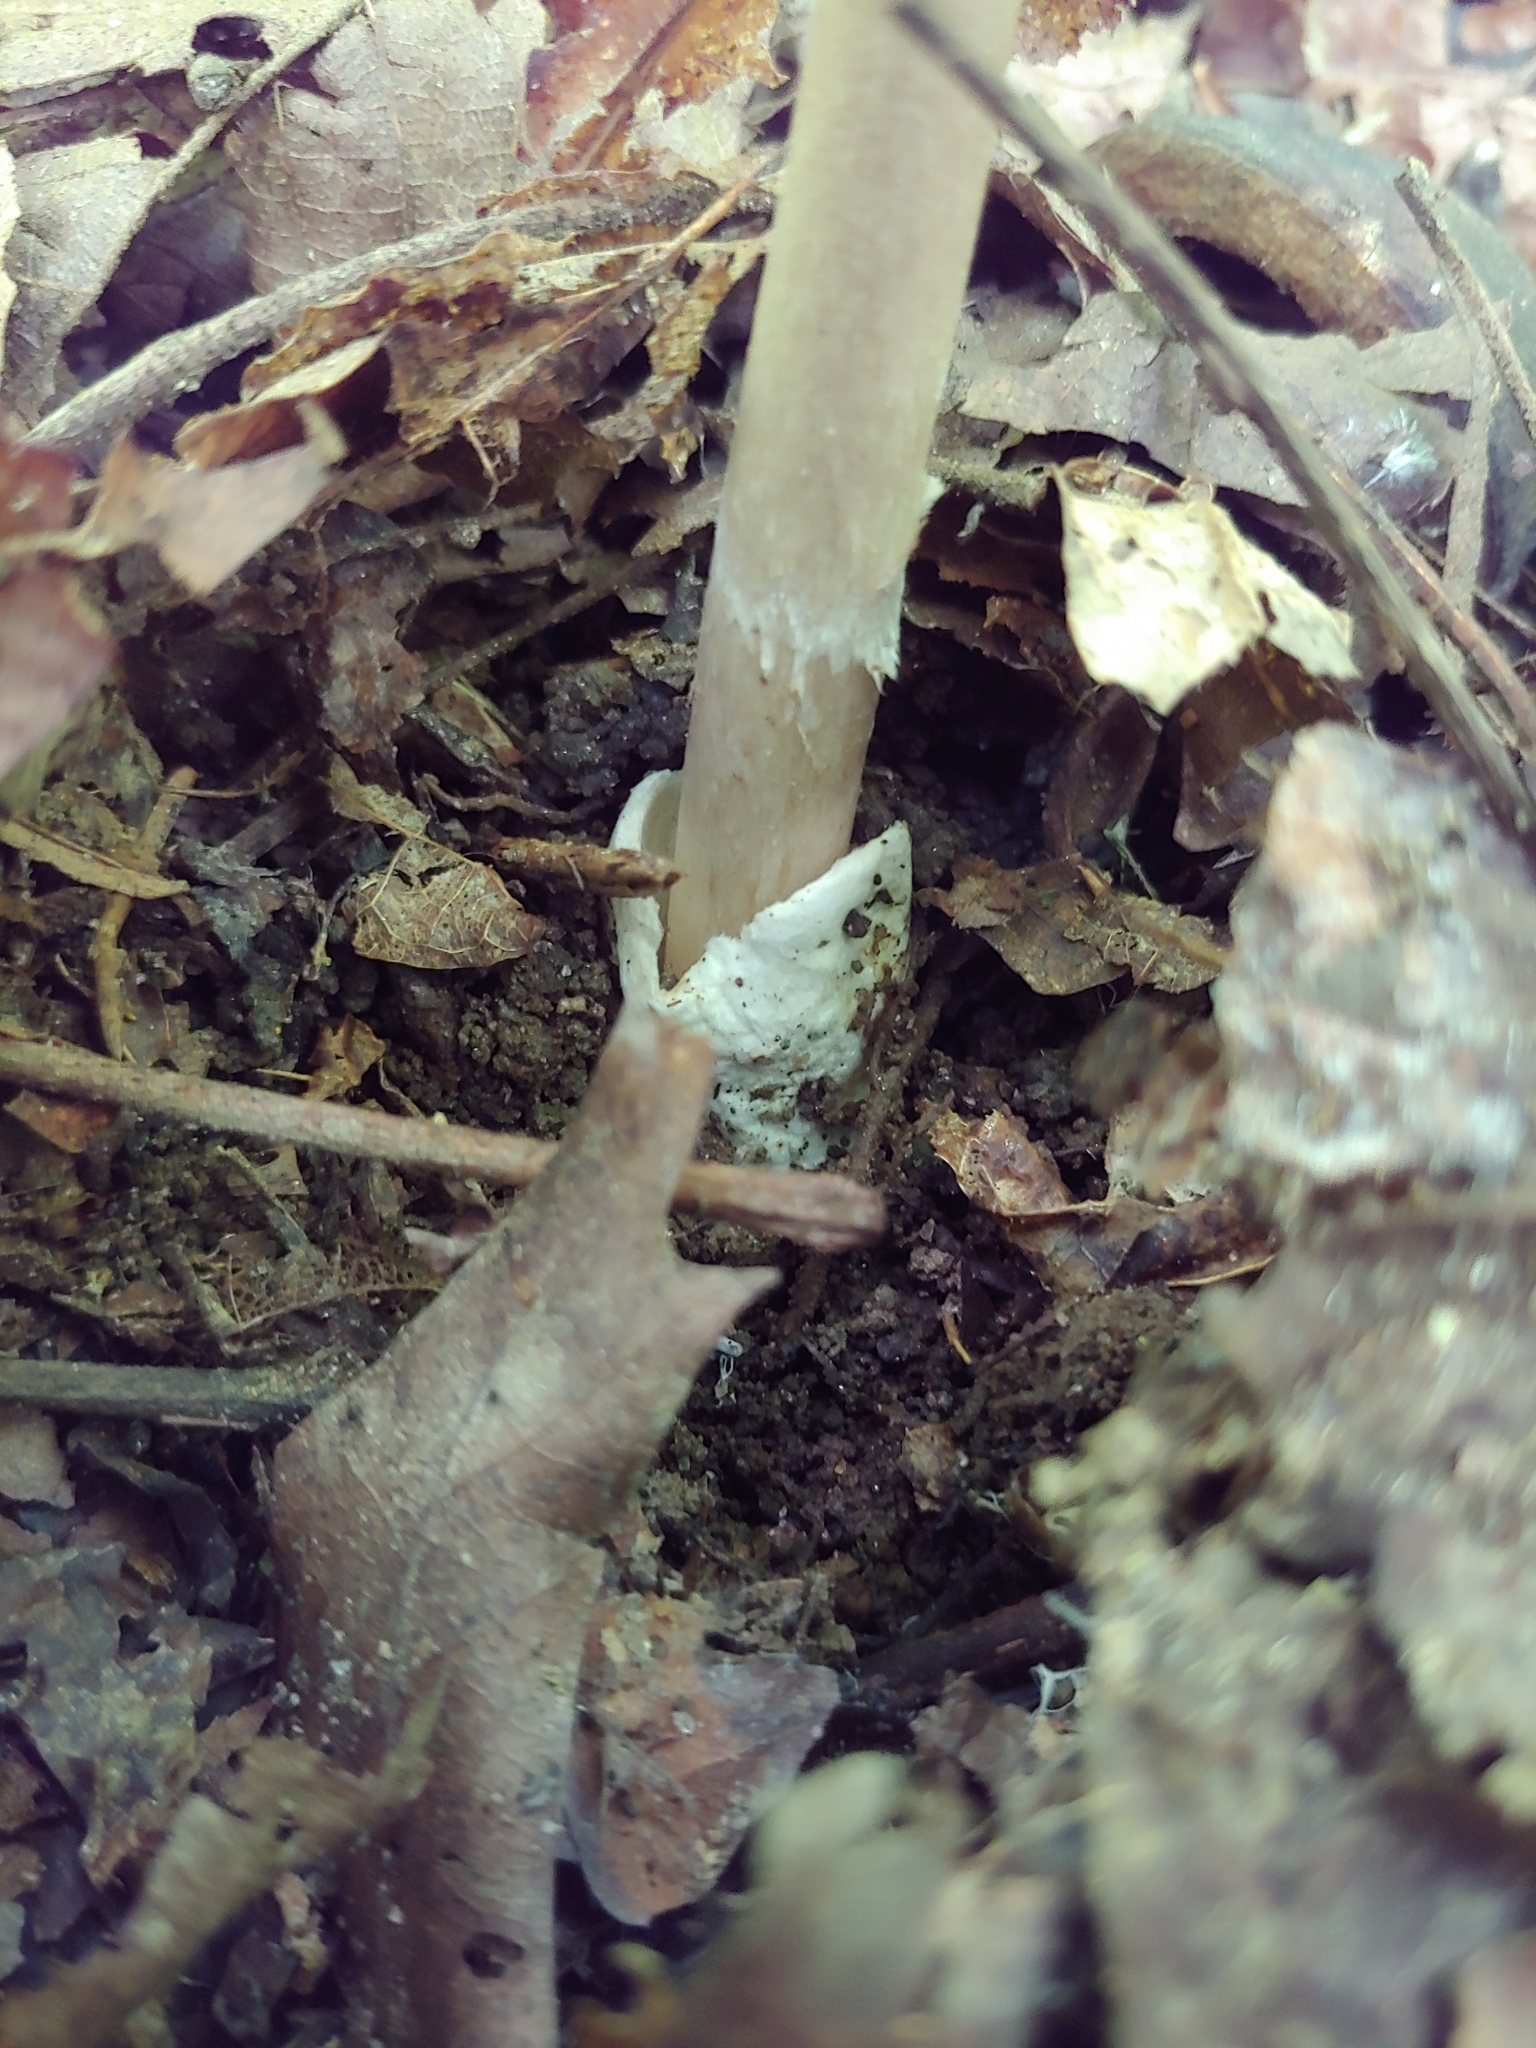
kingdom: Fungi
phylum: Basidiomycota
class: Agaricomycetes
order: Agaricales
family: Amanitaceae
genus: Amanita
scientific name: Amanita vaginata
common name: Grisette
